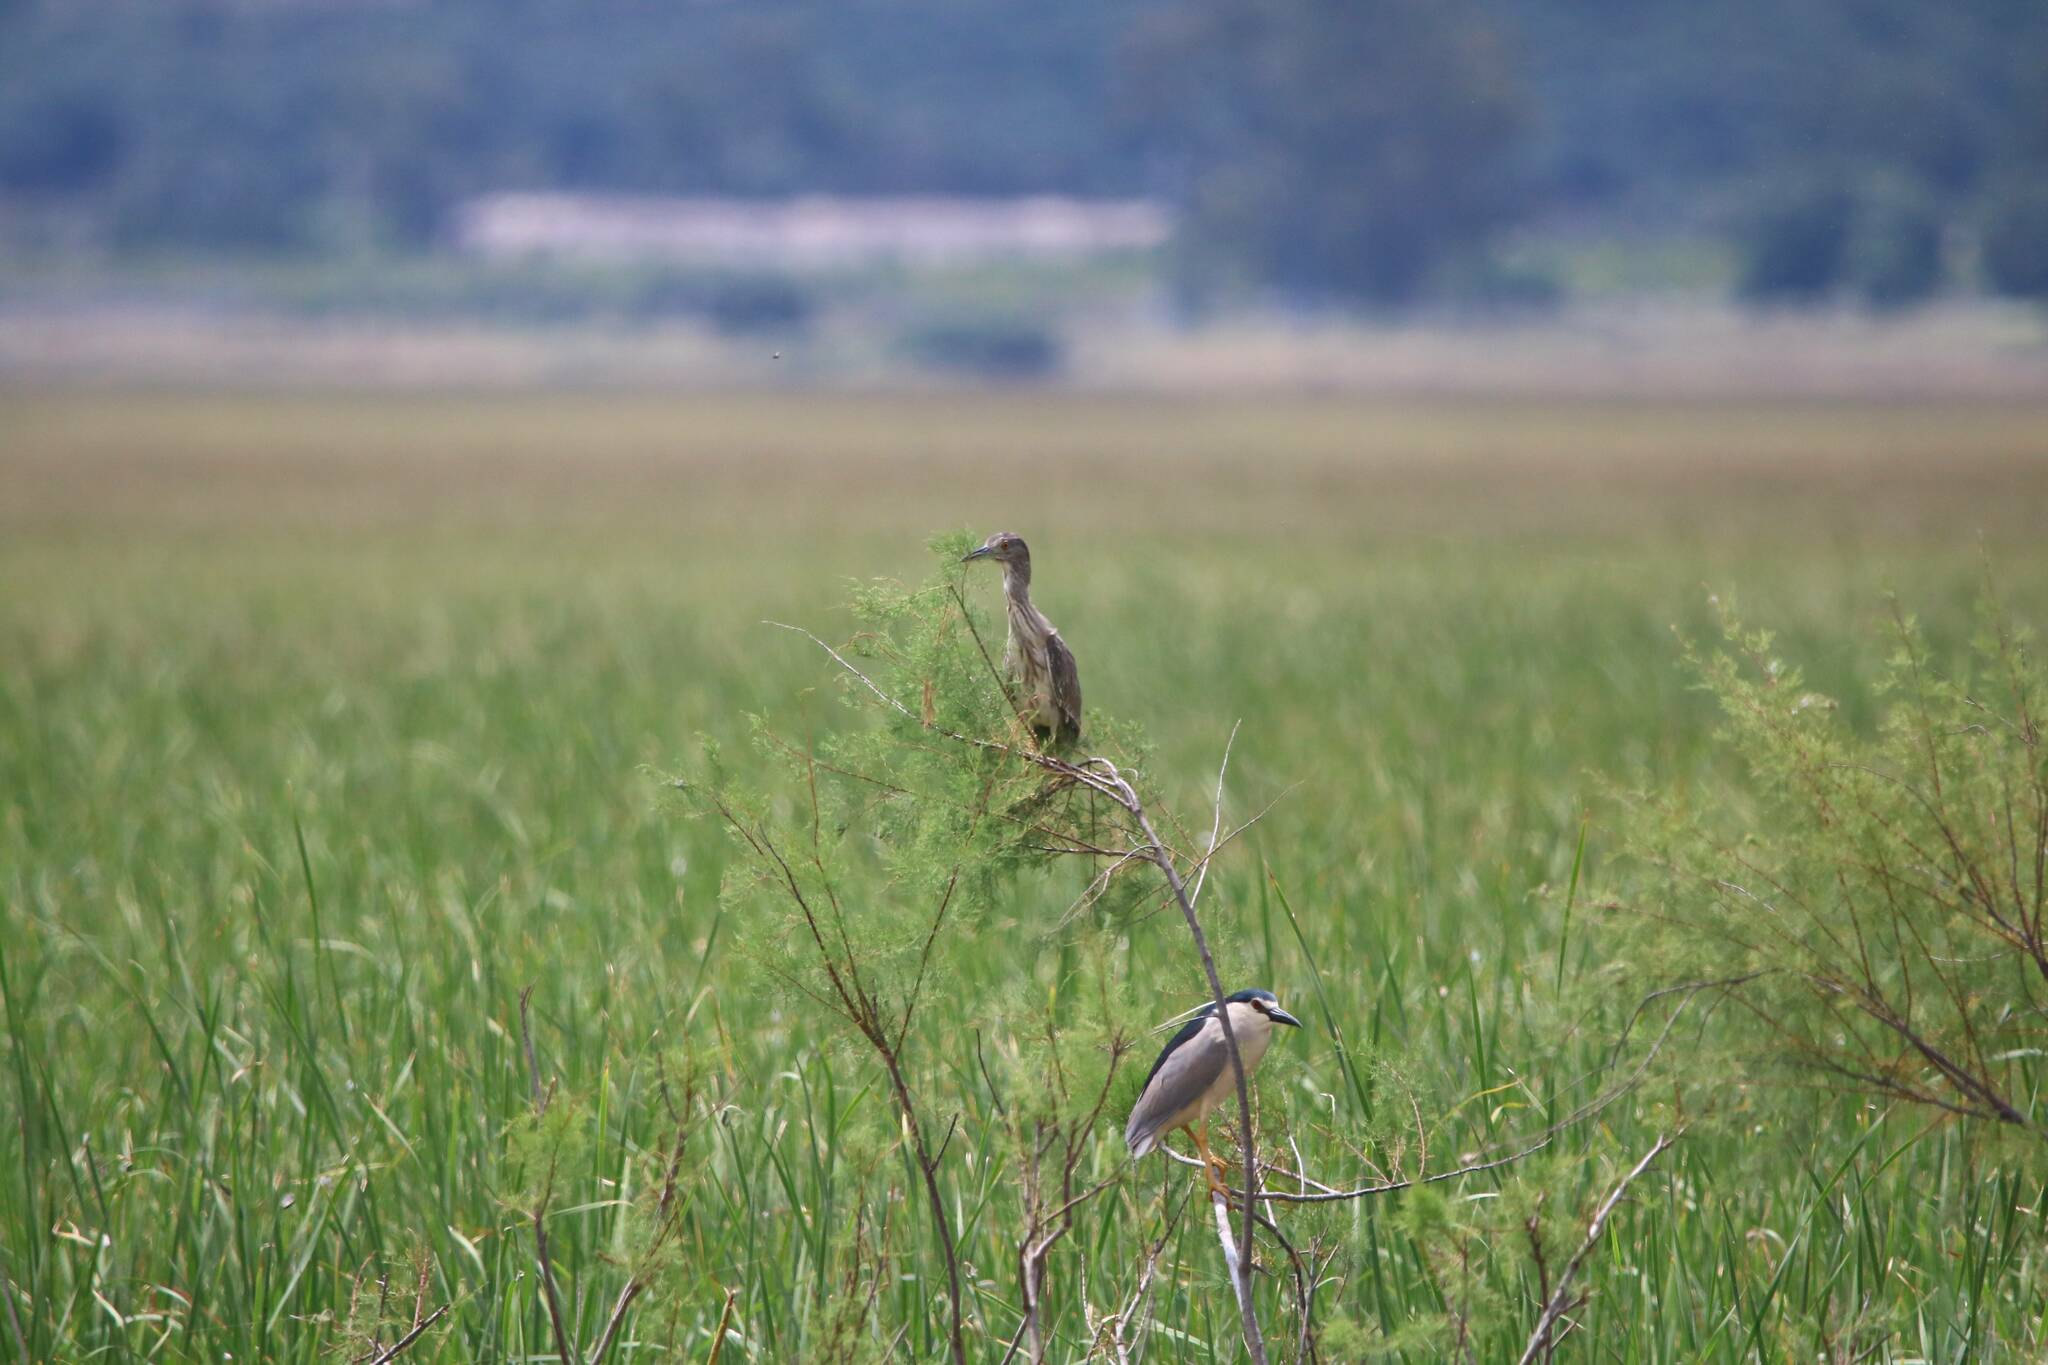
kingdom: Animalia
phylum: Chordata
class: Aves
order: Pelecaniformes
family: Ardeidae
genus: Nycticorax
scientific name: Nycticorax nycticorax
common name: Black-crowned night heron
